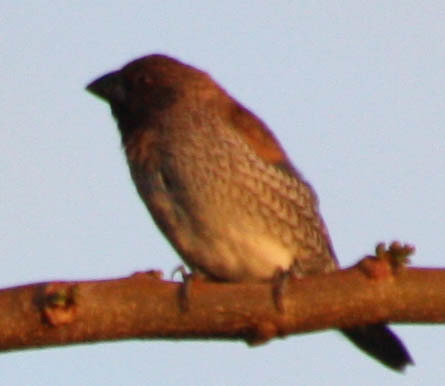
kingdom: Animalia
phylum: Chordata
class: Aves
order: Passeriformes
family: Estrildidae
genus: Lonchura
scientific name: Lonchura punctulata
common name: Scaly-breasted munia
